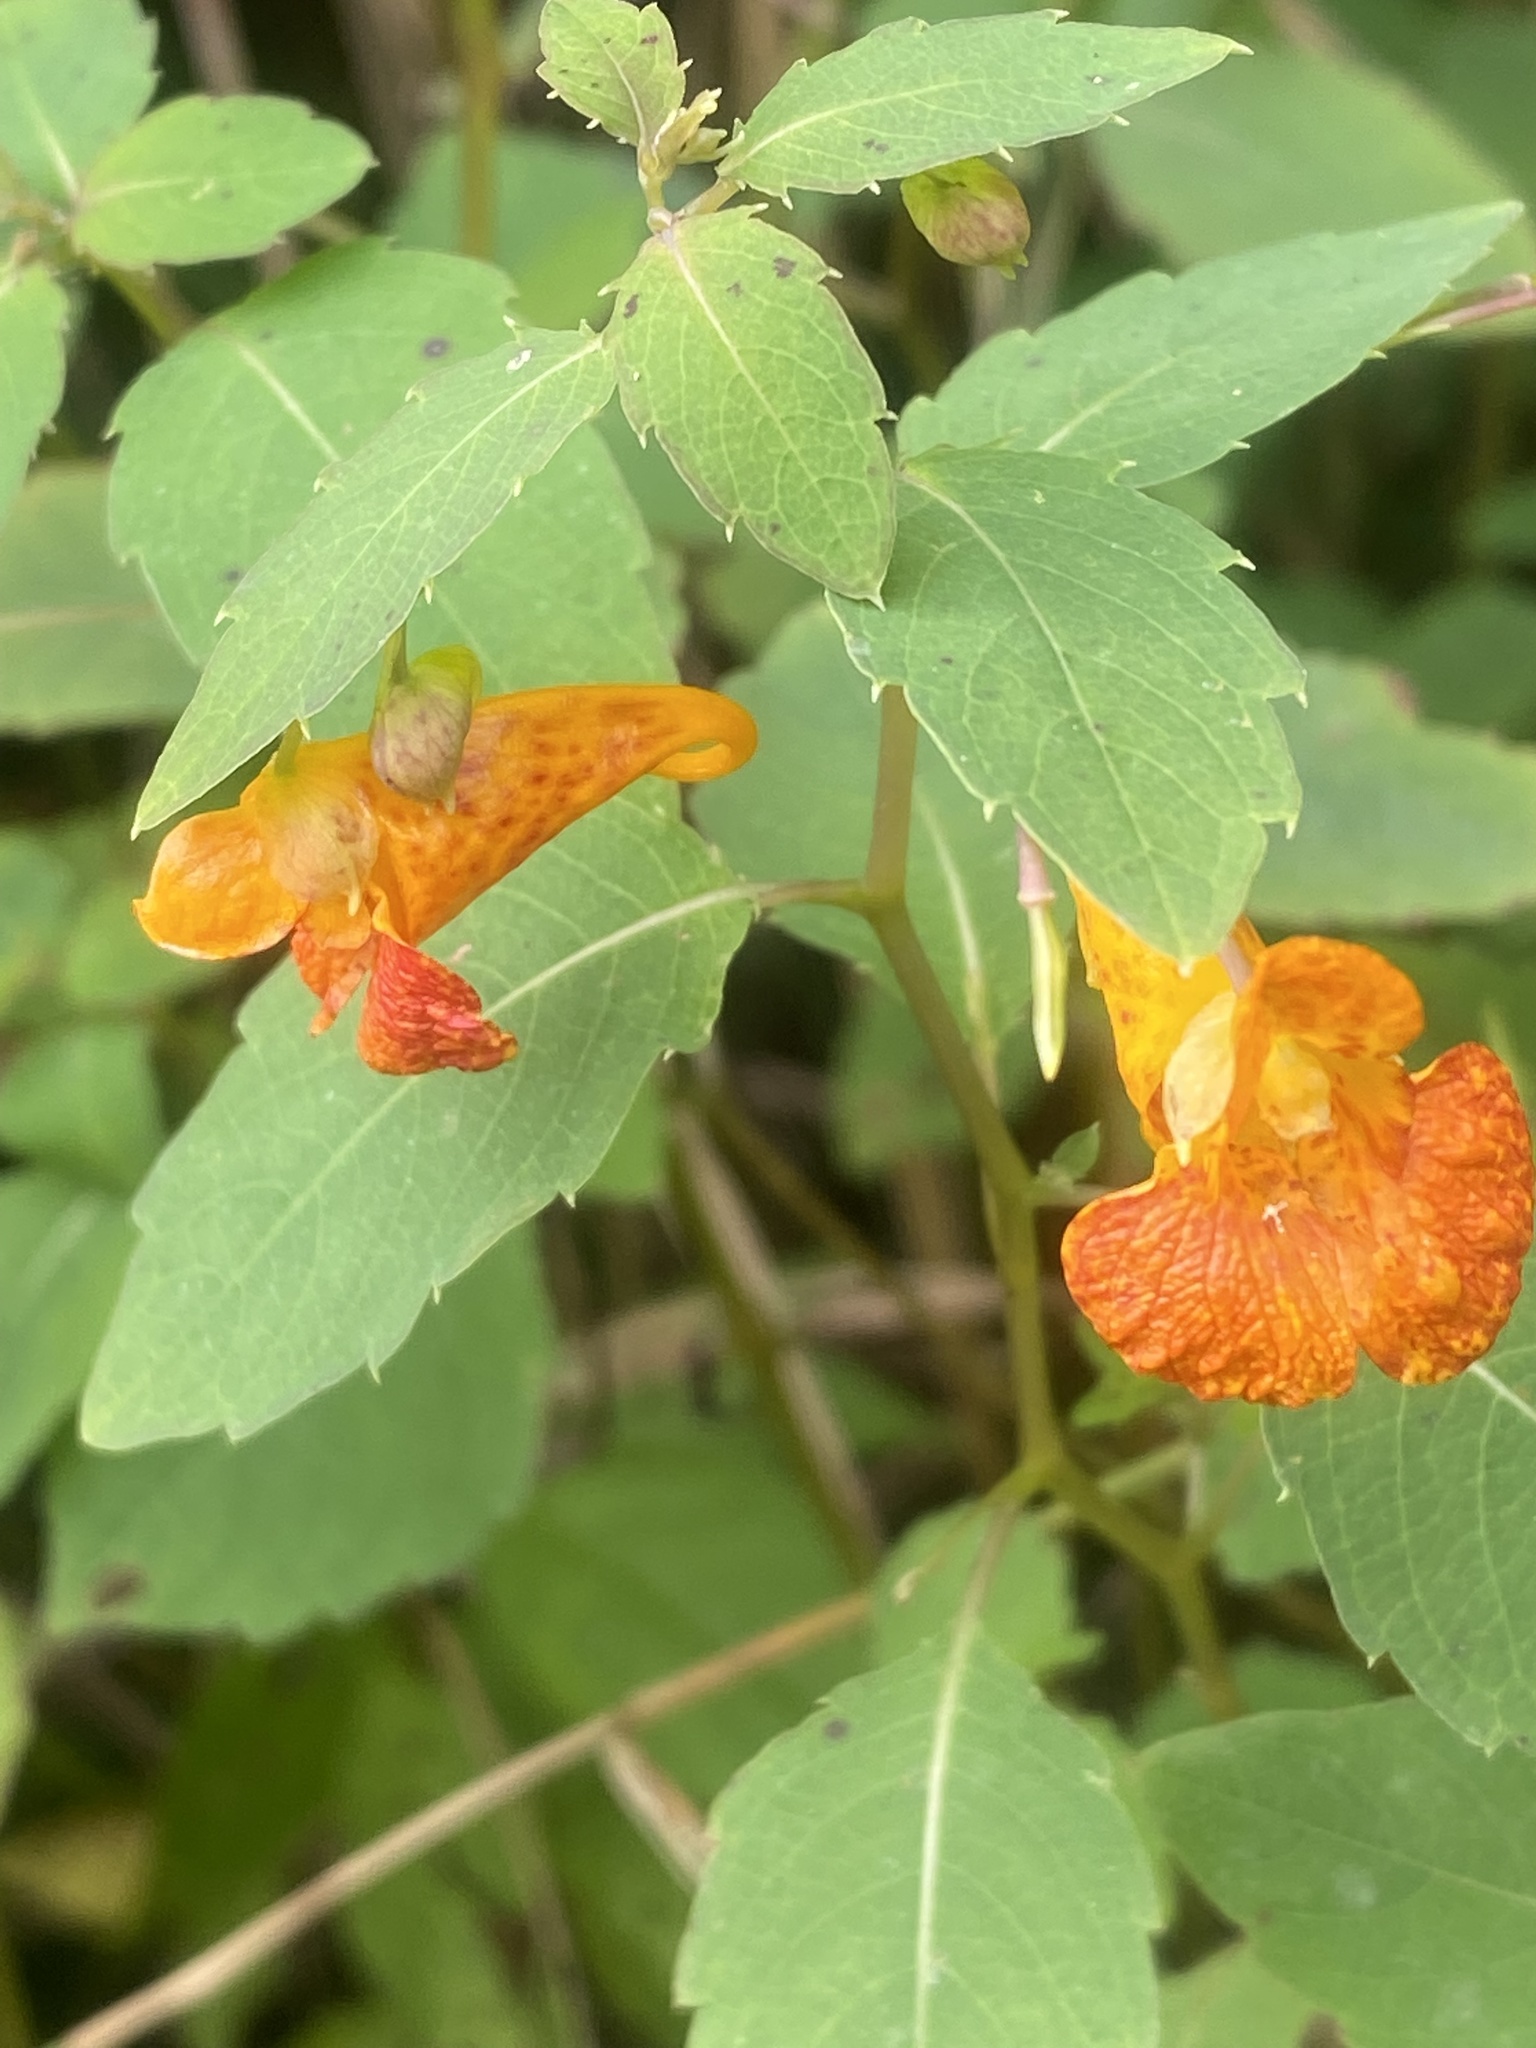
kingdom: Plantae
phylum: Tracheophyta
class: Magnoliopsida
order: Ericales
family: Balsaminaceae
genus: Impatiens
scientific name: Impatiens capensis
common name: Orange balsam
